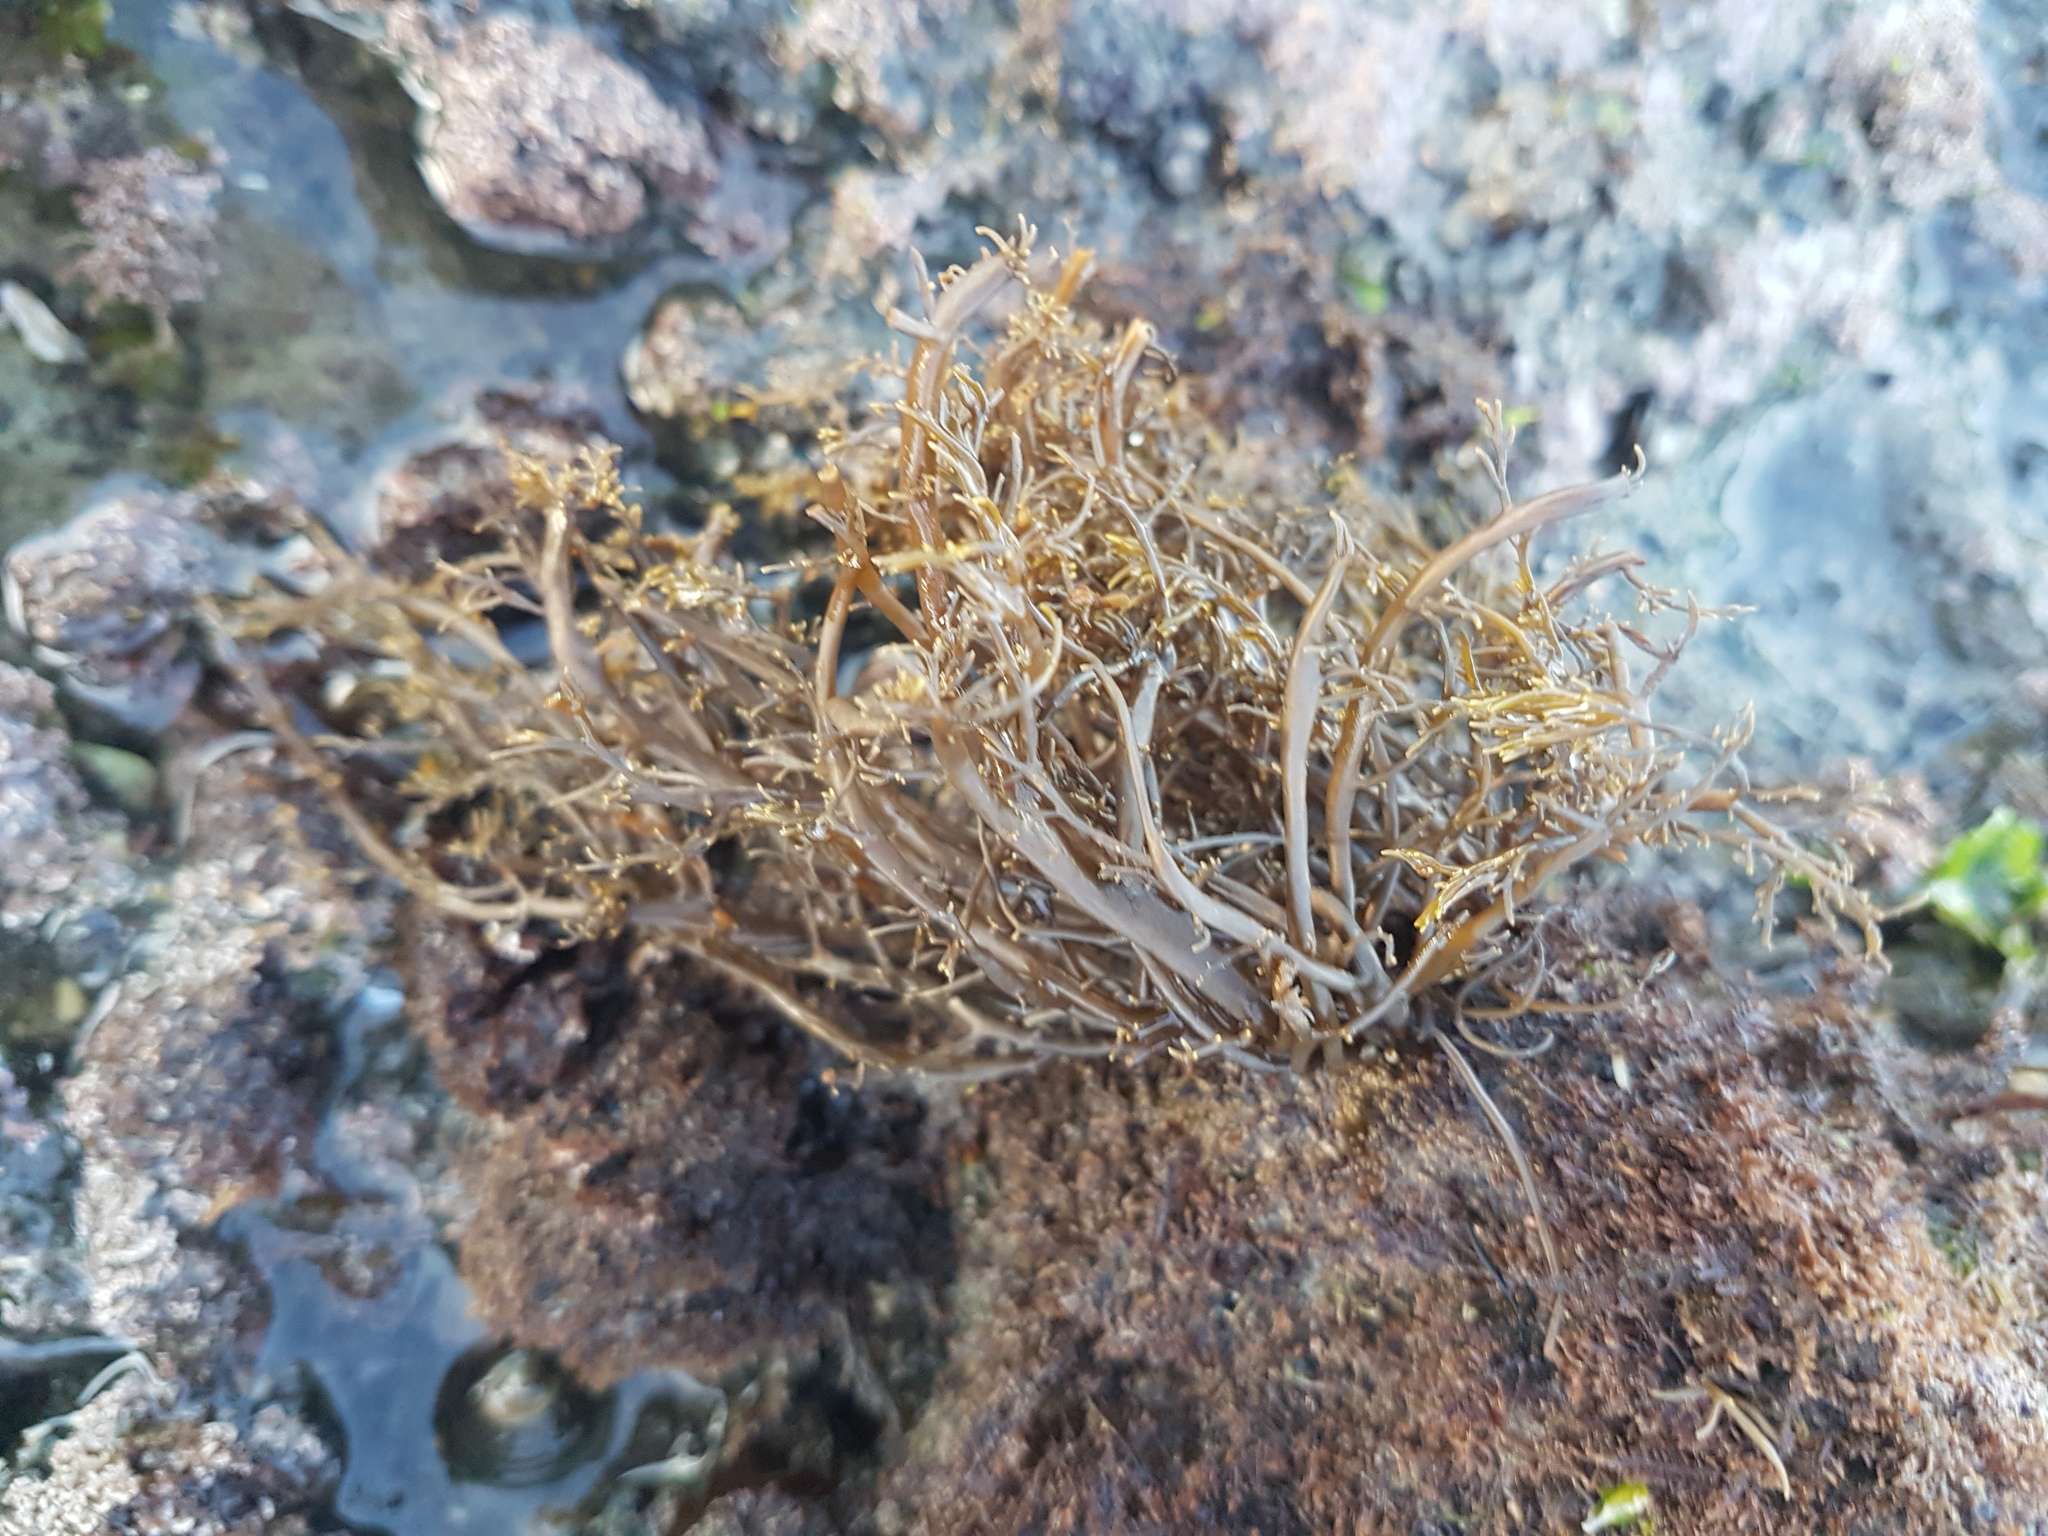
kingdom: Chromista
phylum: Ochrophyta
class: Phaeophyceae
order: Scytothamnales
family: Scytothamnaceae
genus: Scytothamnus
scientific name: Scytothamnus australis
